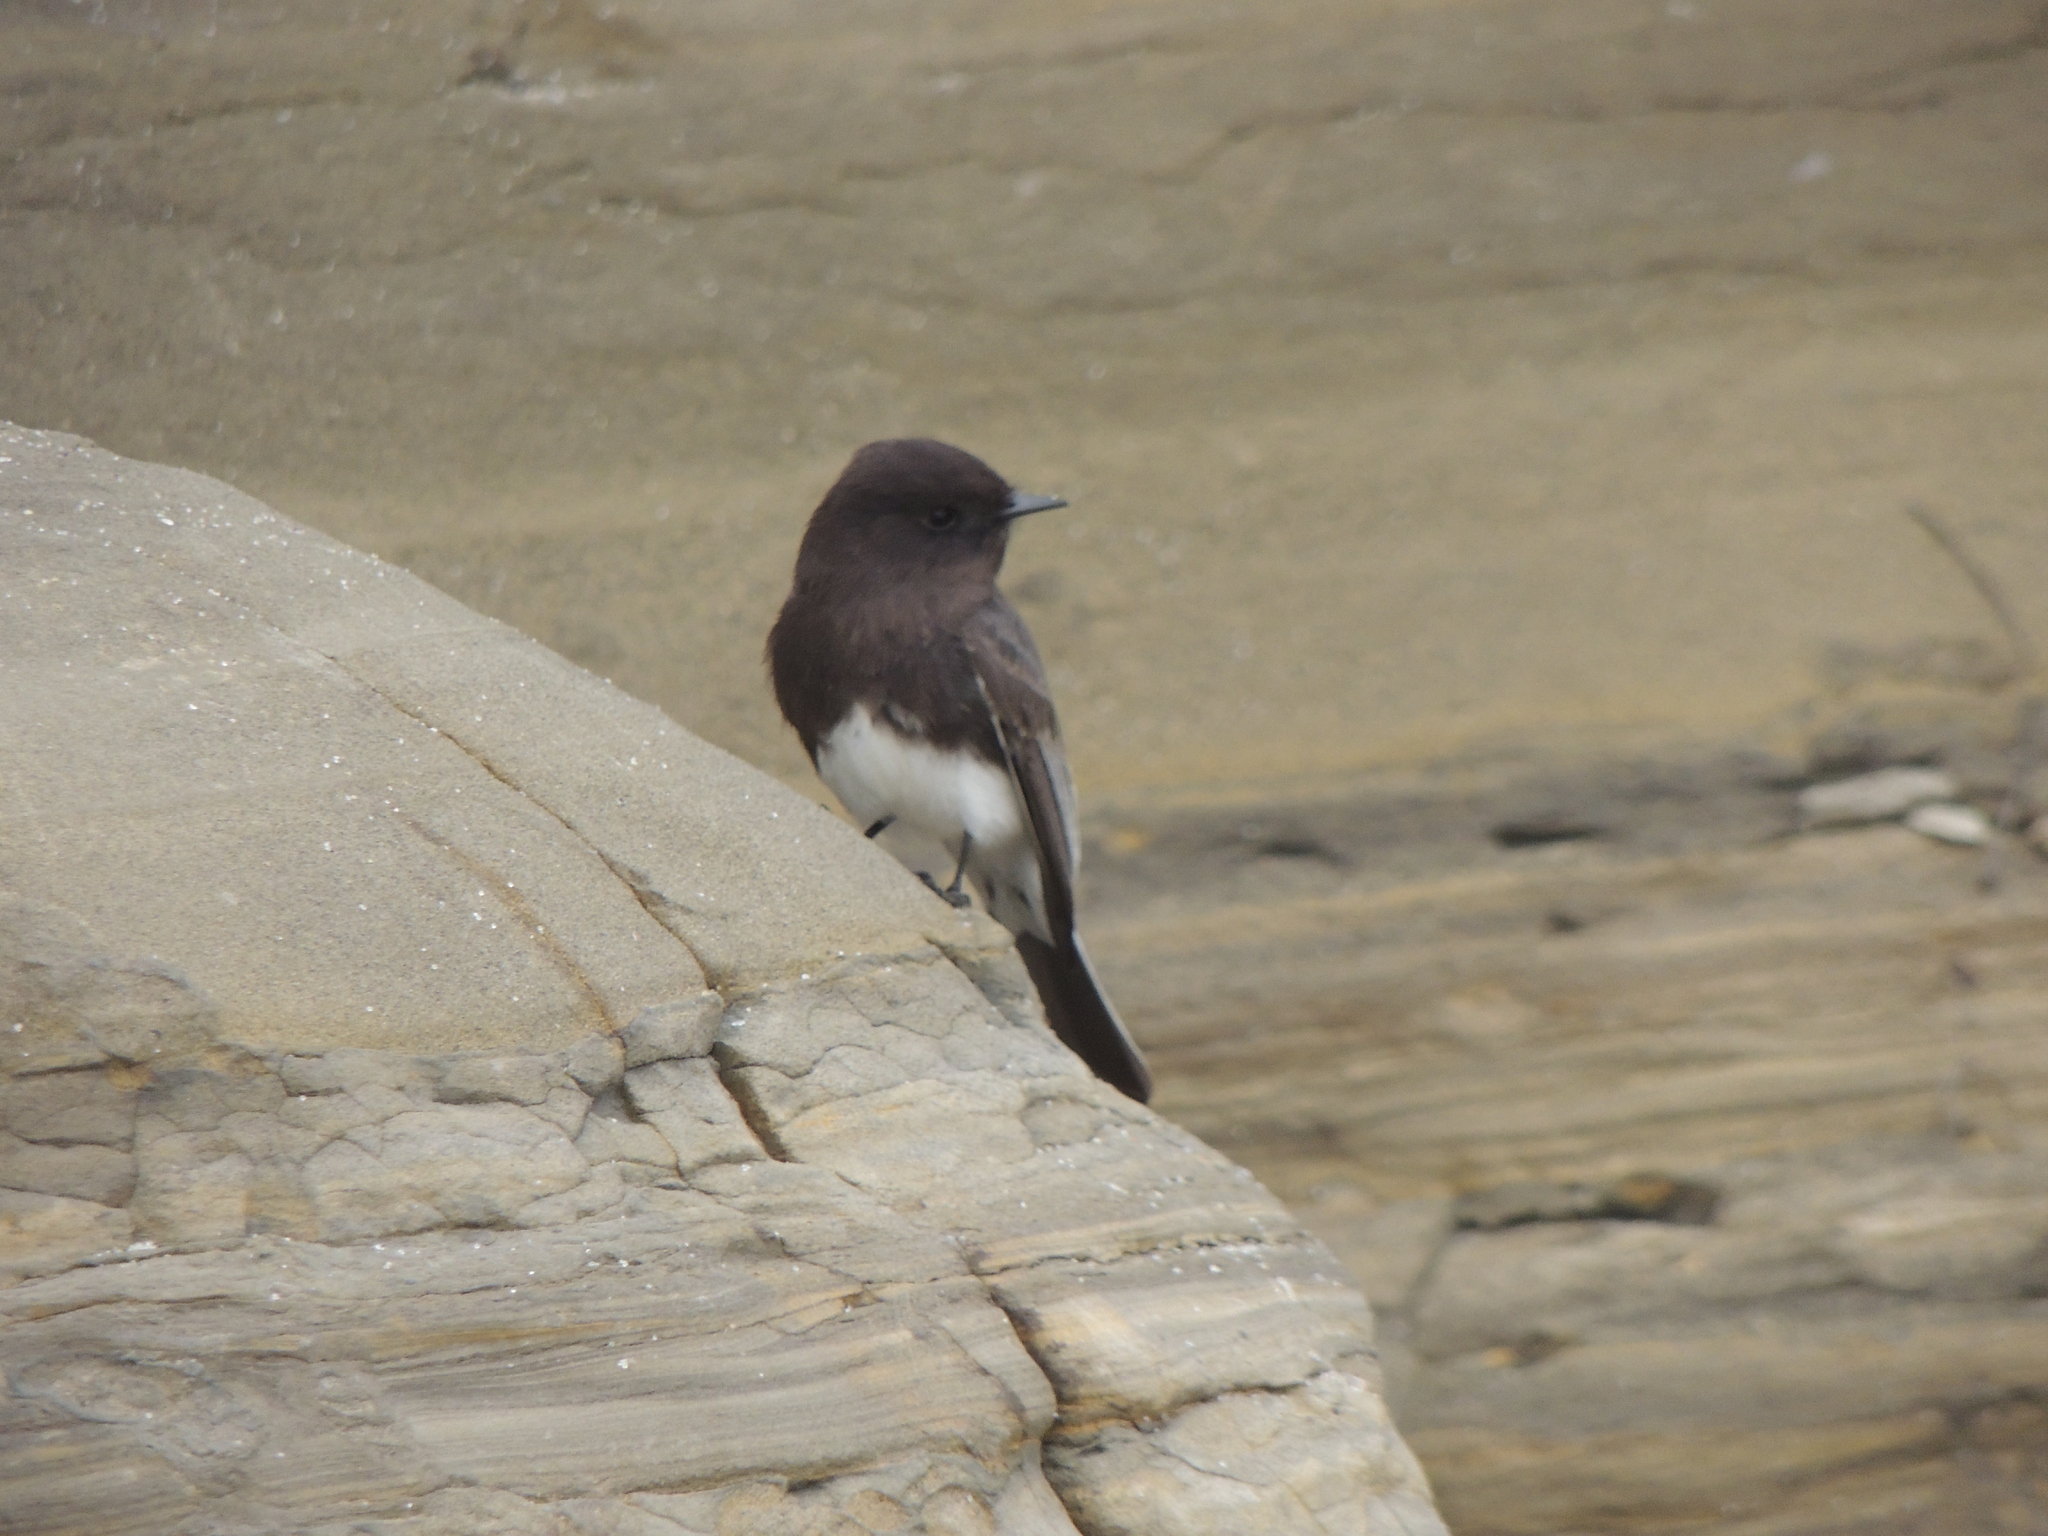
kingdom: Animalia
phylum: Chordata
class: Aves
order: Passeriformes
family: Tyrannidae
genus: Sayornis
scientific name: Sayornis nigricans
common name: Black phoebe
